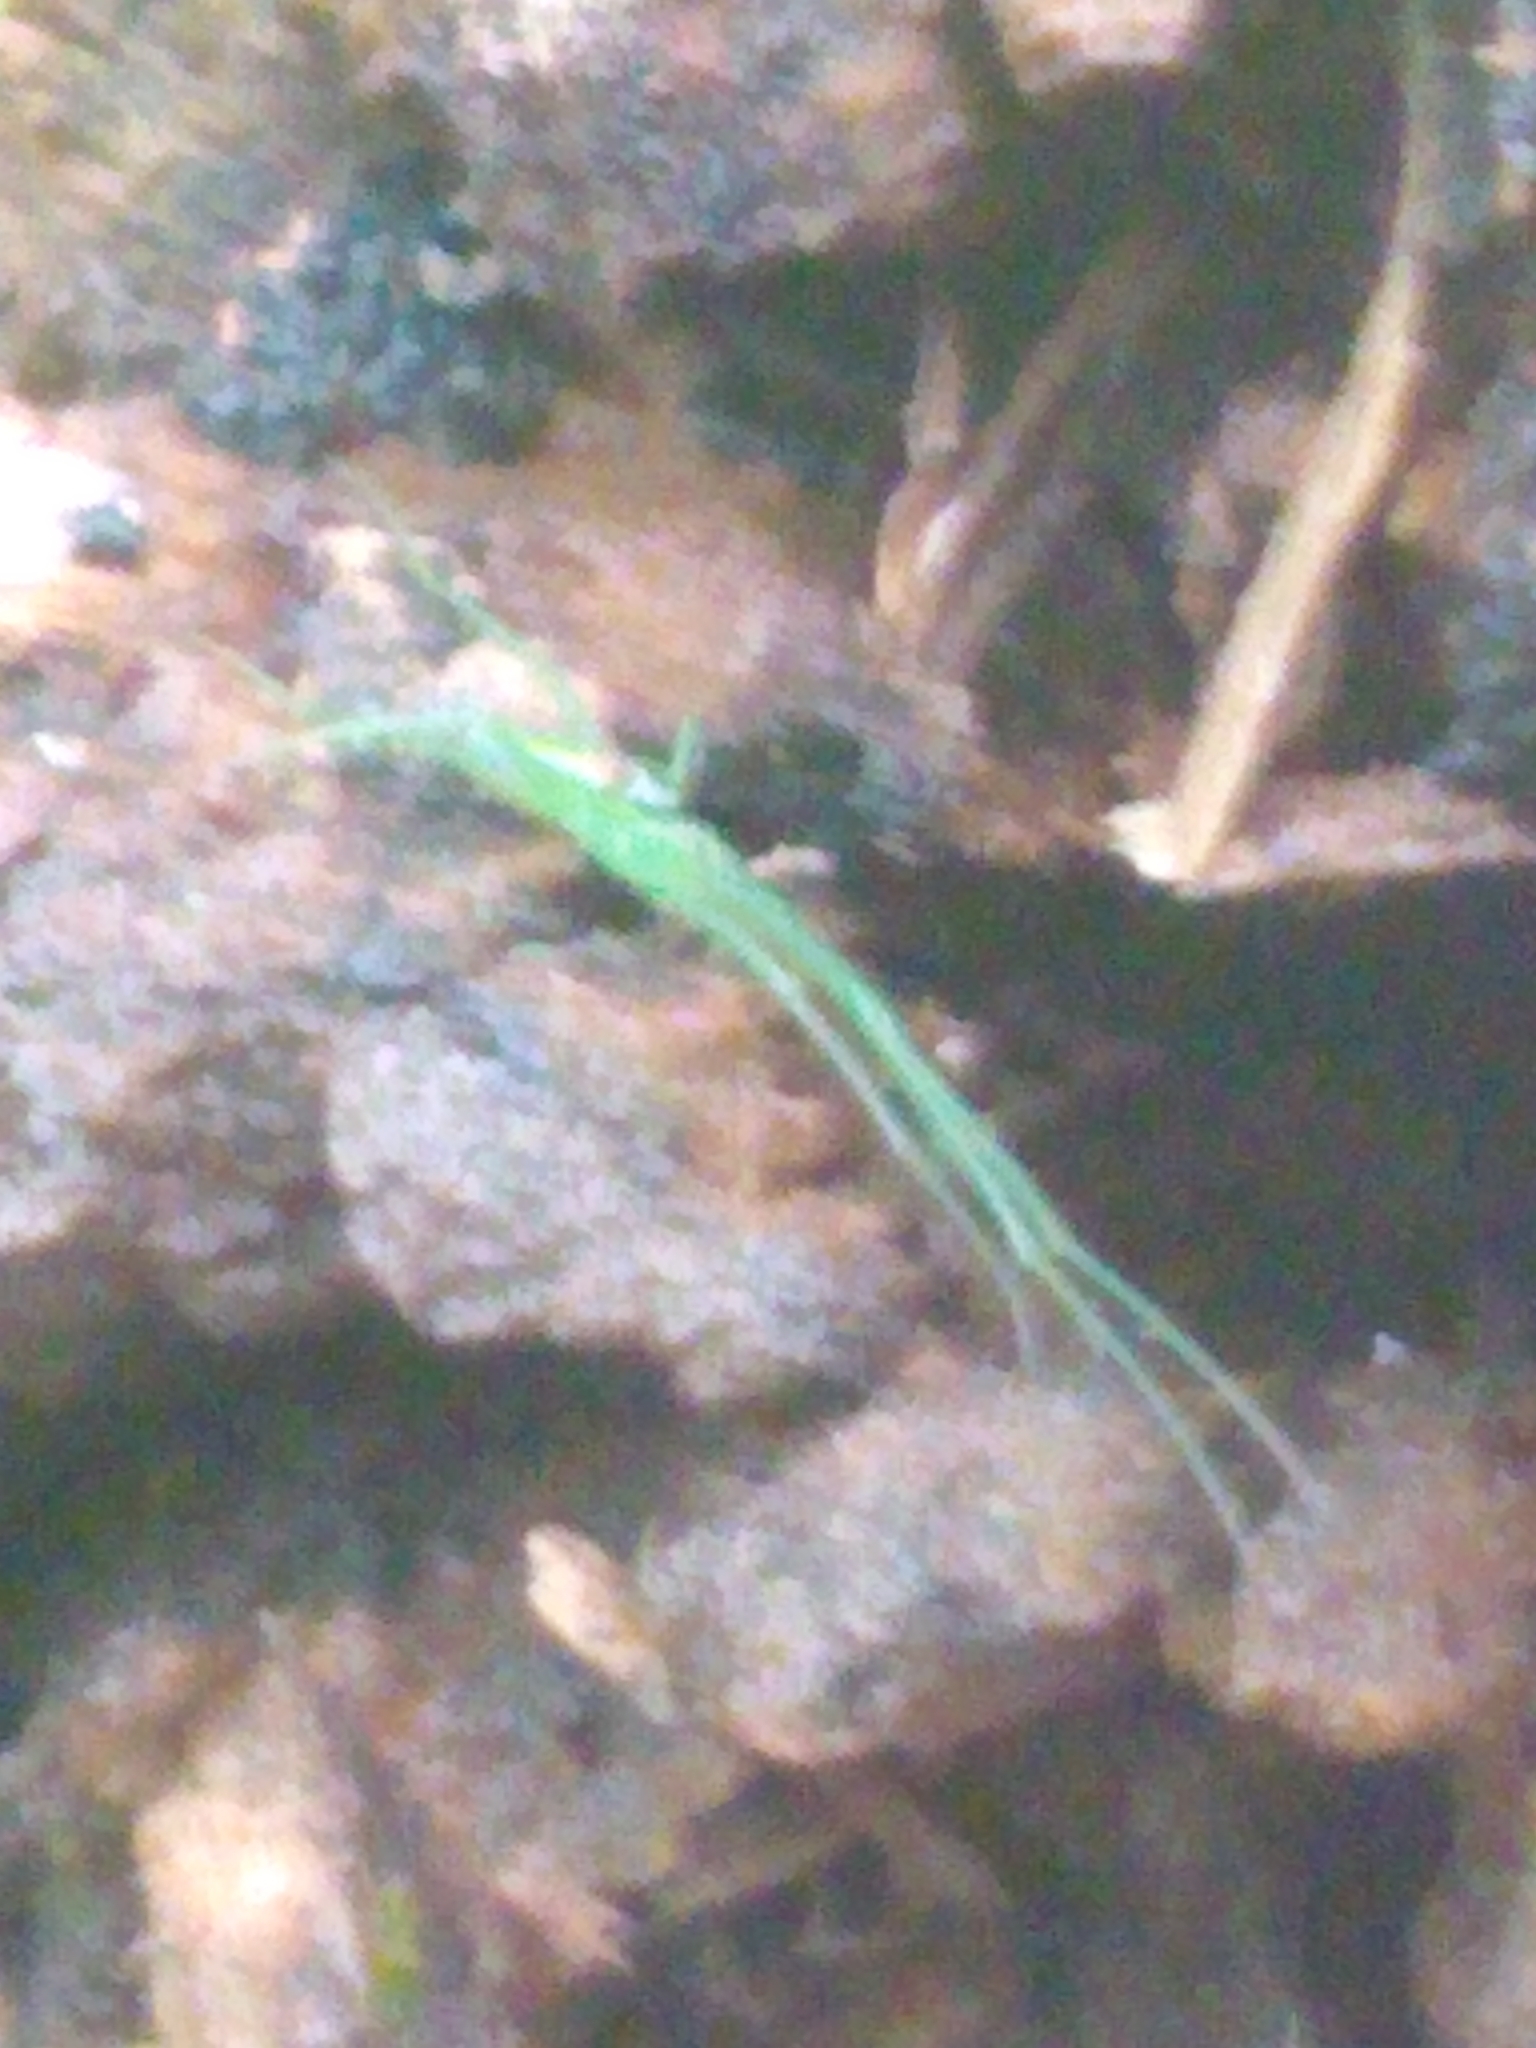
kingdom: Animalia
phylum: Arthropoda
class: Arachnida
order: Araneae
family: Tetragnathidae
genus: Tetragnatha
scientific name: Tetragnatha viridis
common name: Green long-jawed spider
